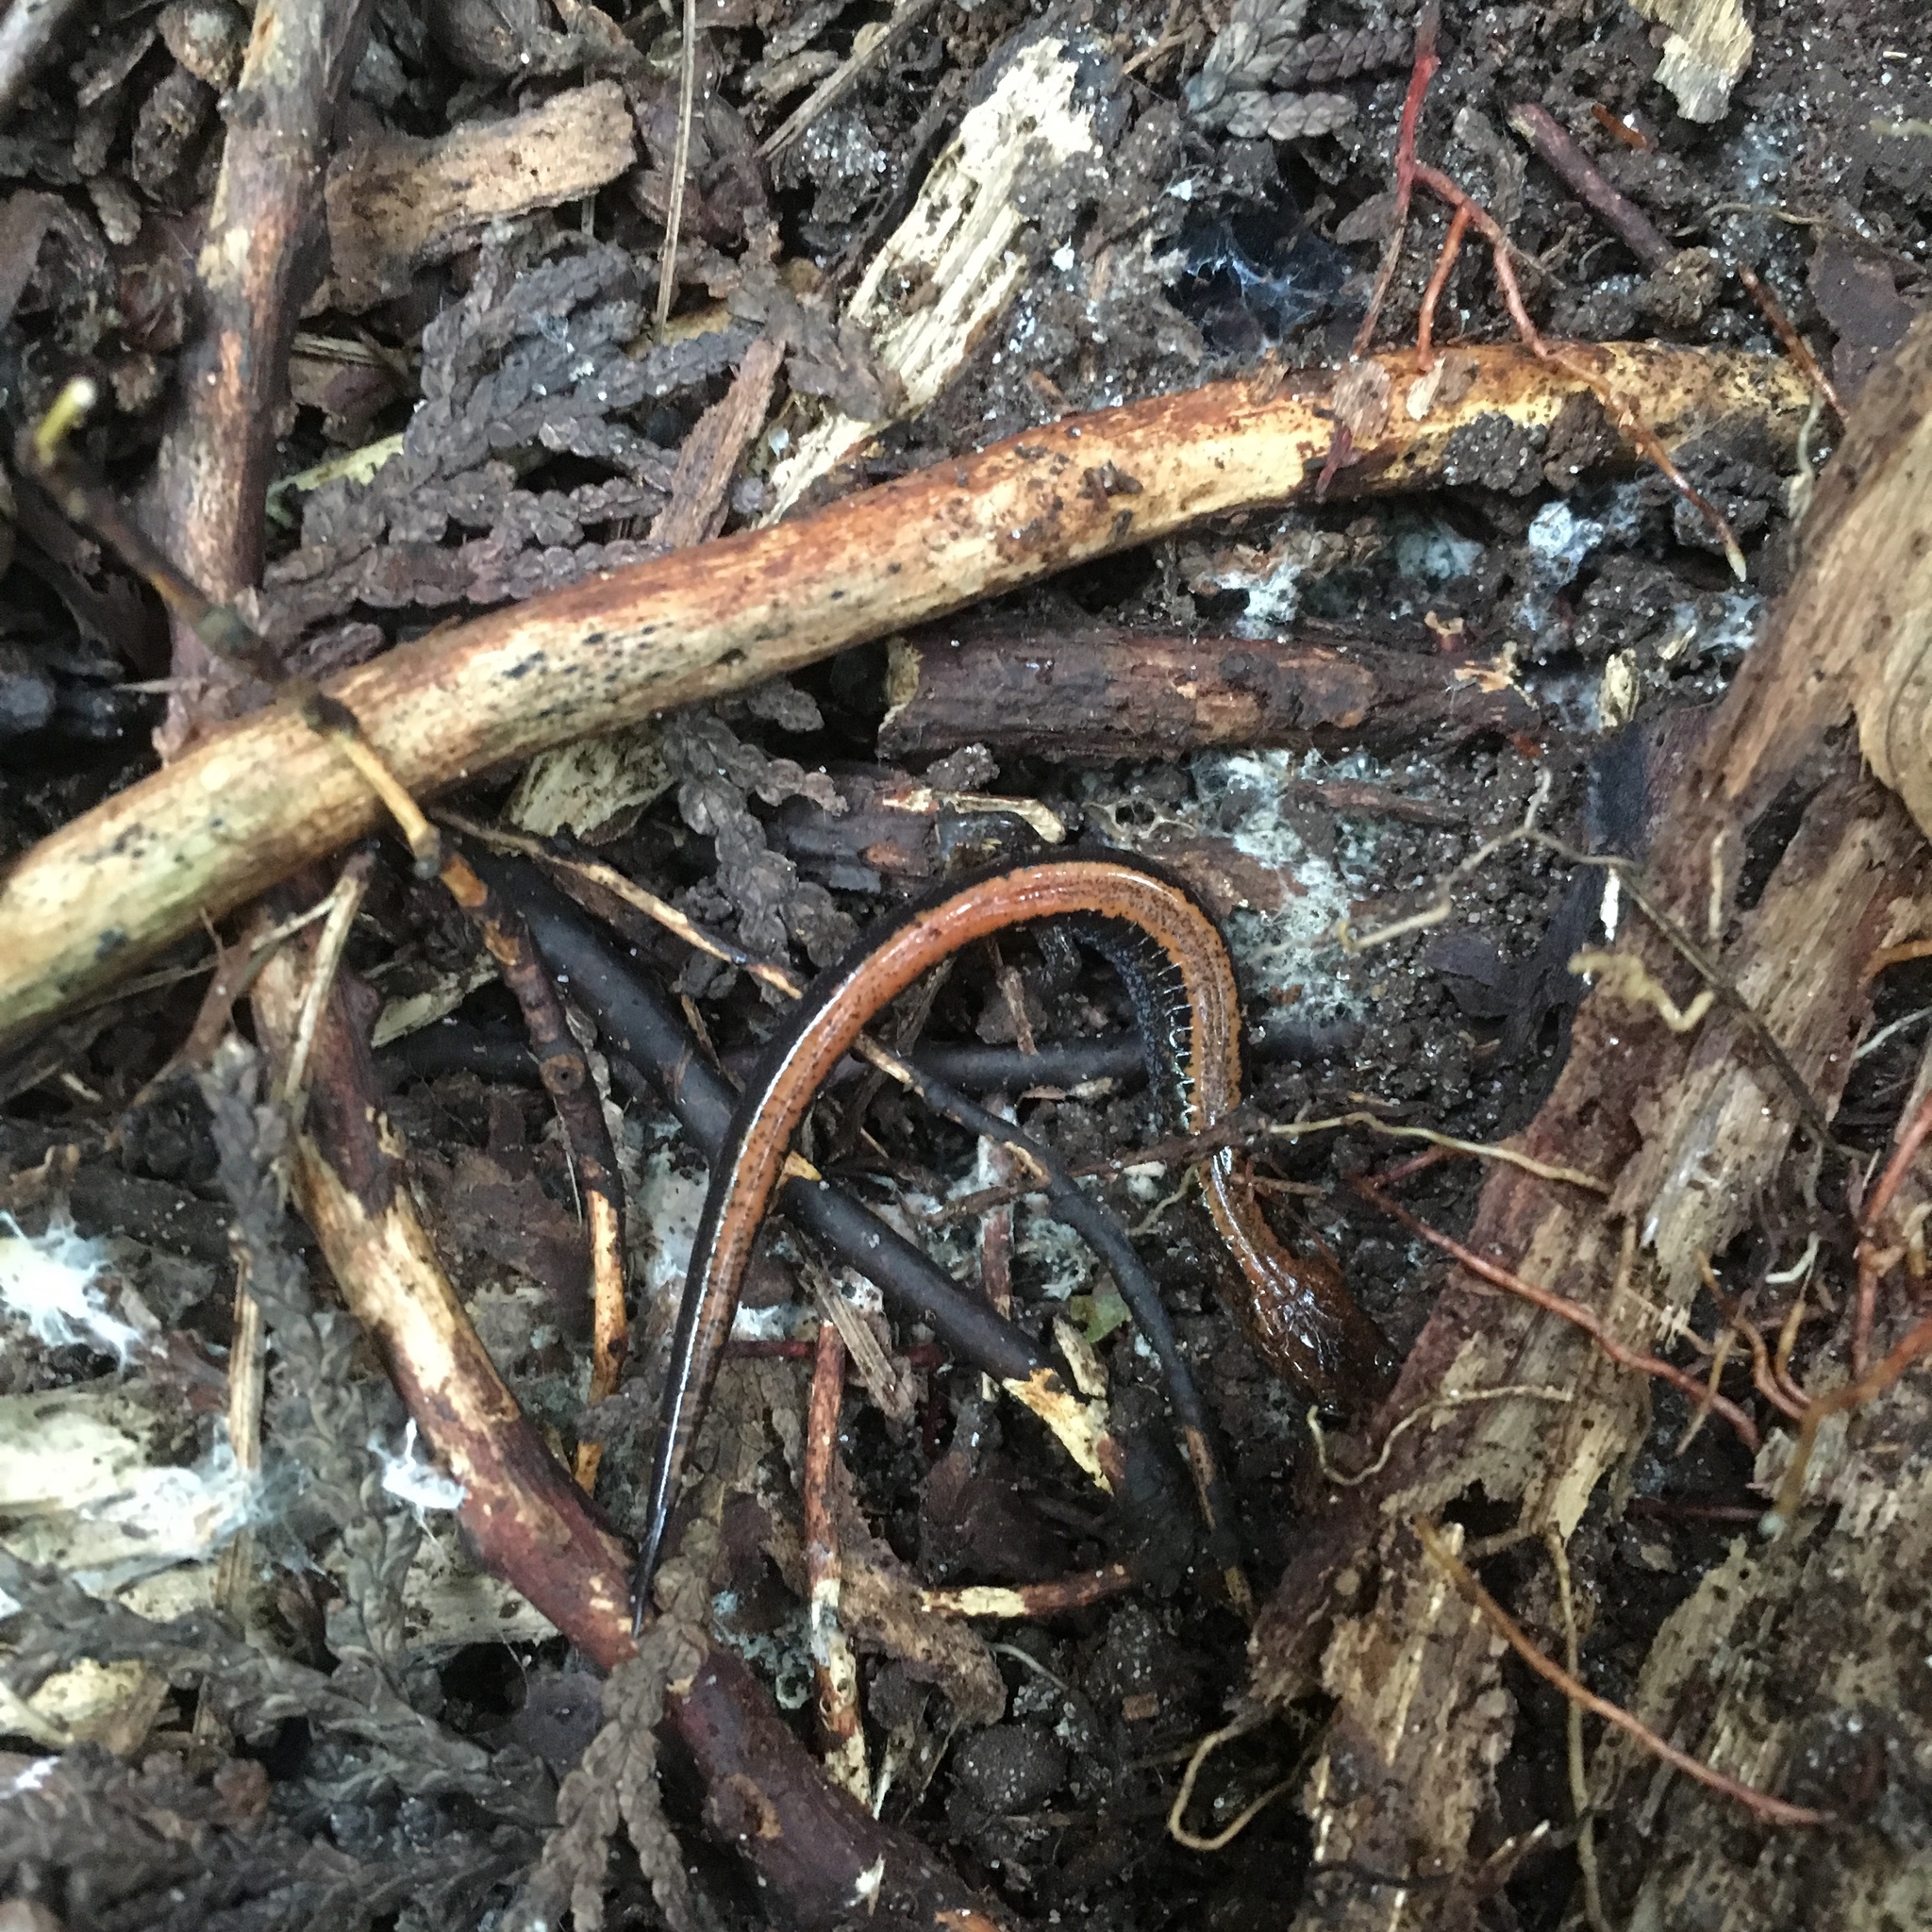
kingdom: Animalia
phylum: Chordata
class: Amphibia
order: Caudata
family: Plethodontidae
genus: Plethodon
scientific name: Plethodon cinereus
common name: Redback salamander
